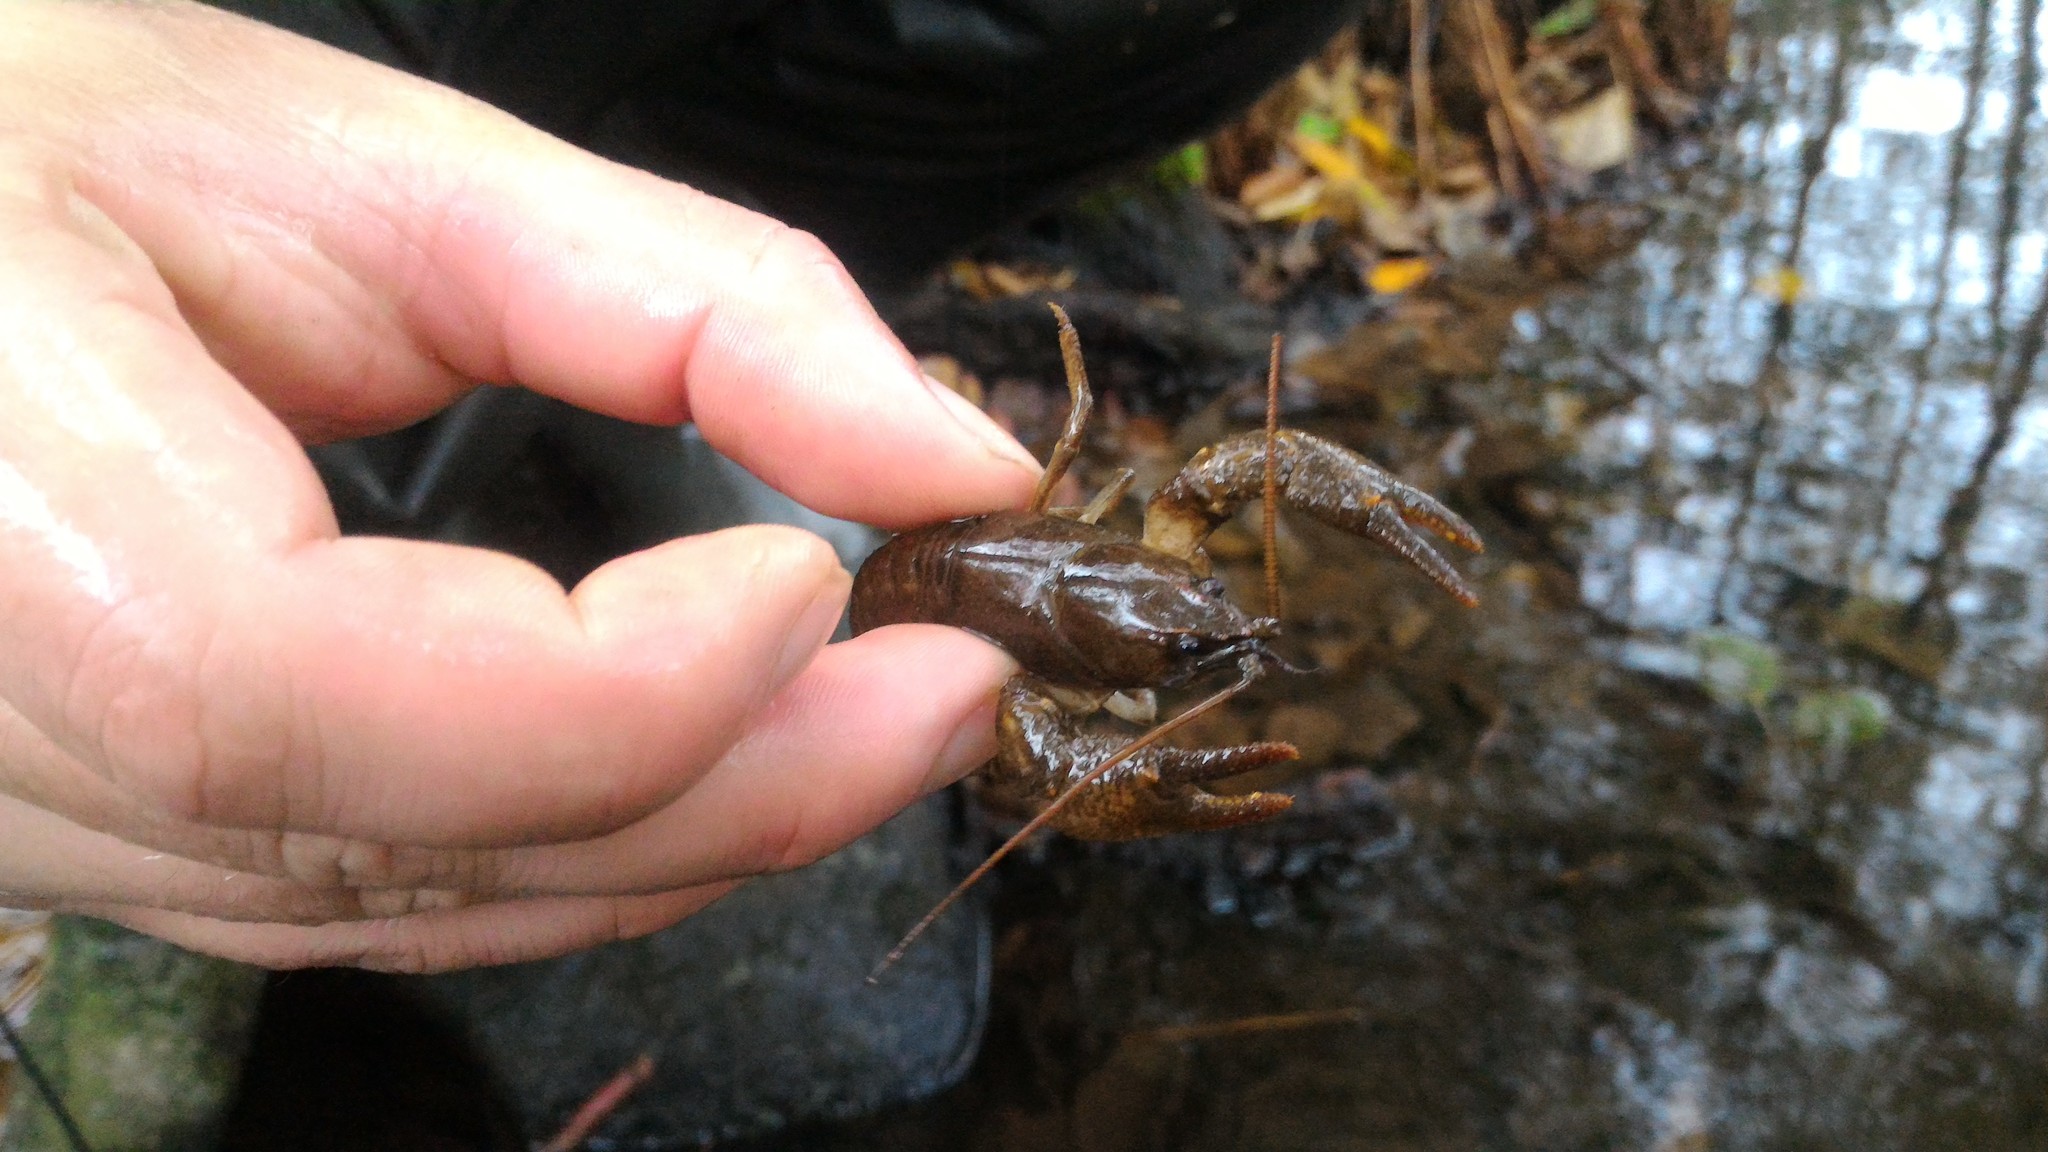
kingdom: Animalia
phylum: Arthropoda
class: Malacostraca
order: Decapoda
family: Astacidae
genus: Austropotamobius
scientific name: Austropotamobius torrentium
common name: Stone crayfish
